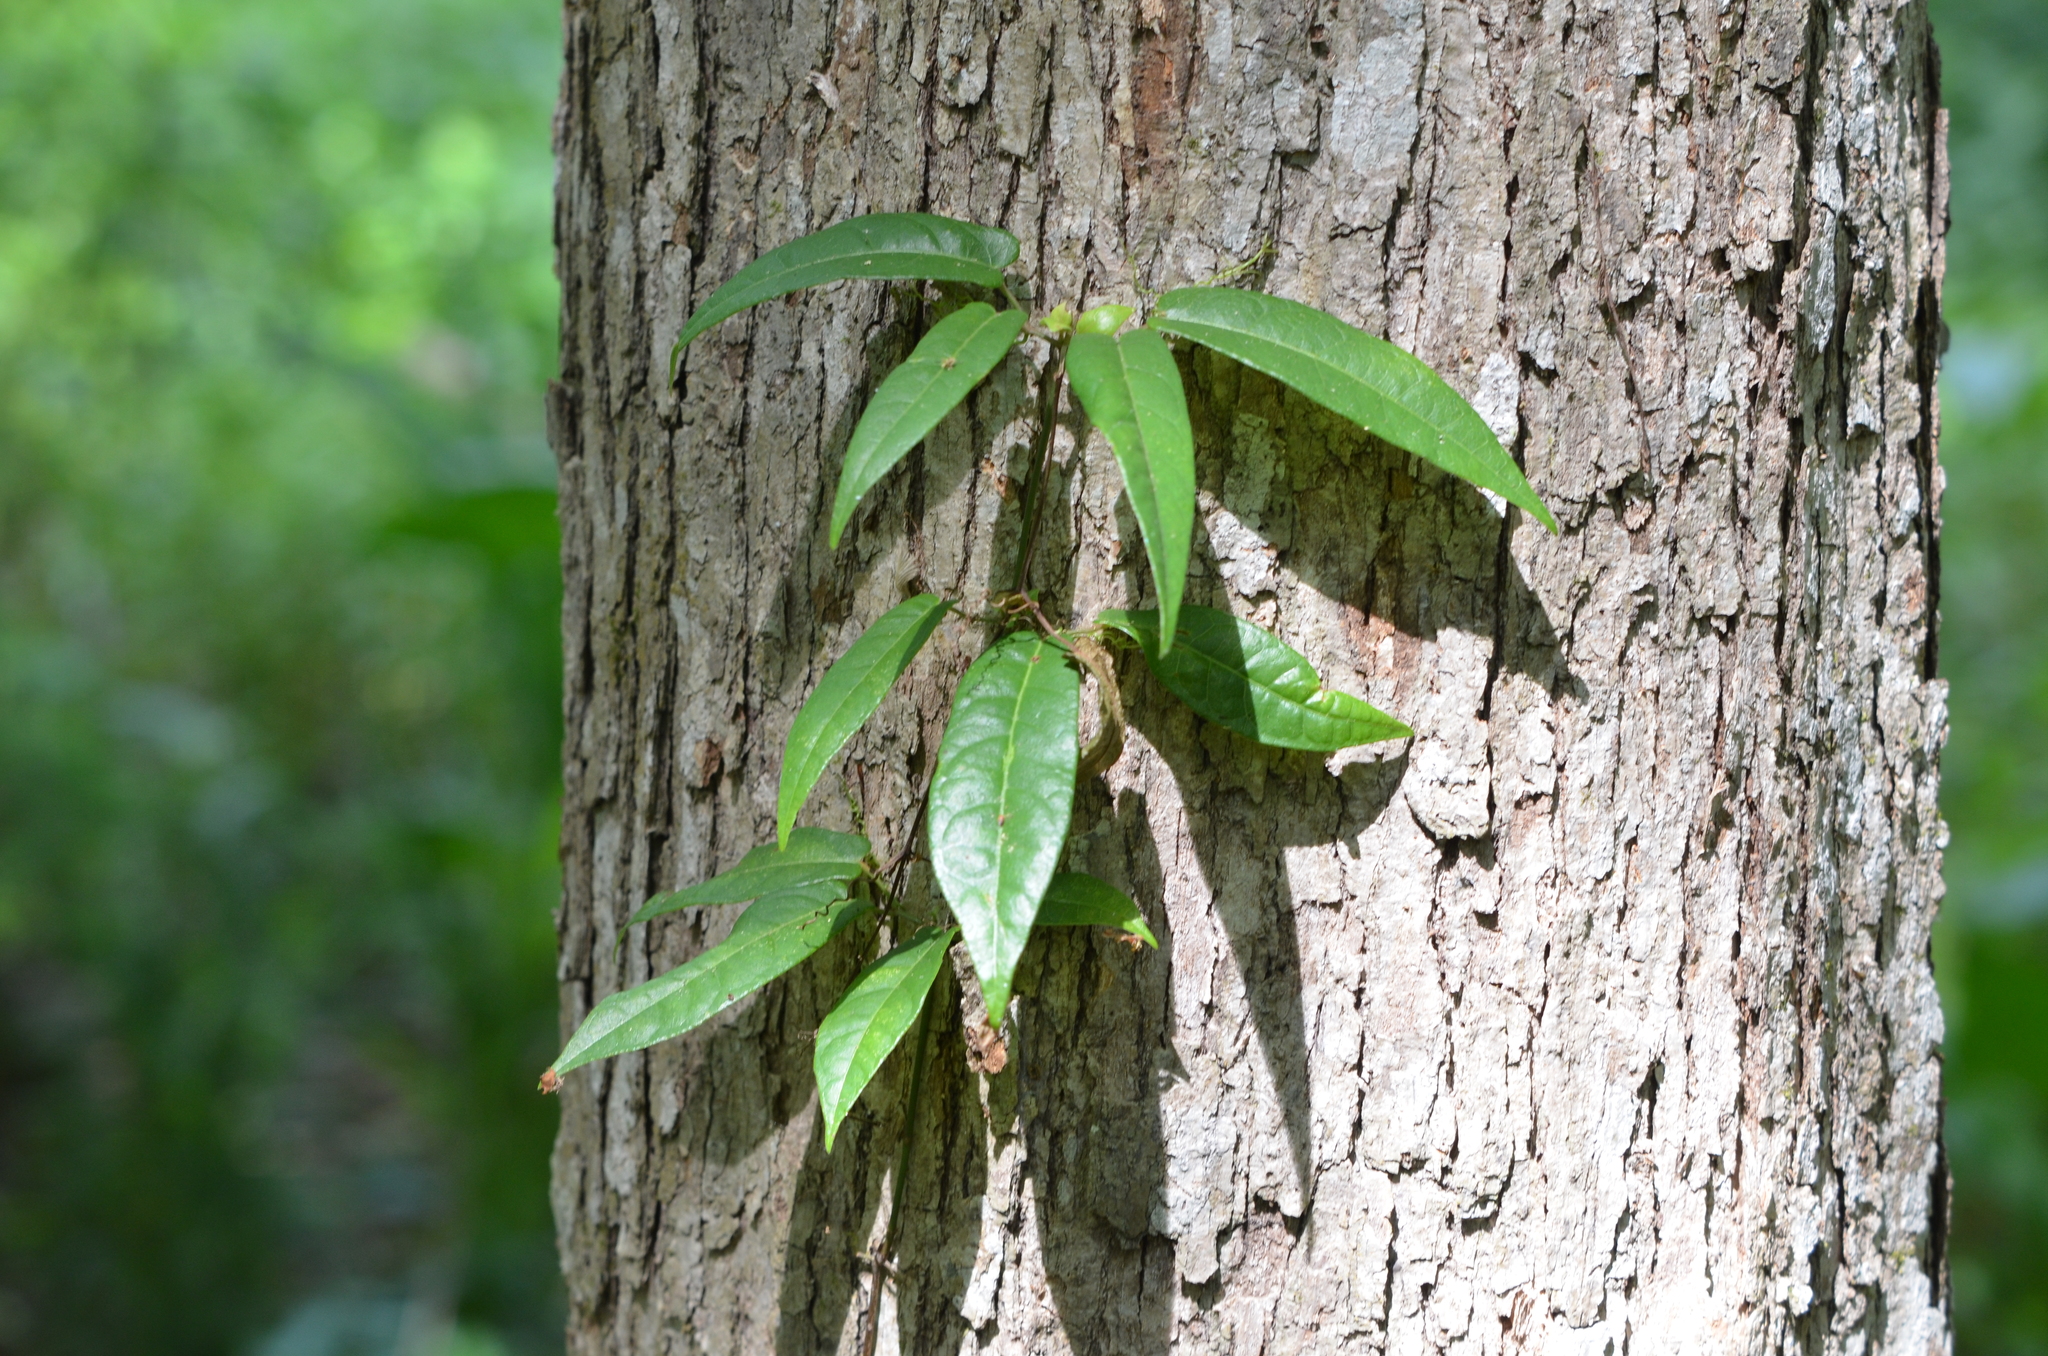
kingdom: Plantae
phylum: Tracheophyta
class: Magnoliopsida
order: Lamiales
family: Bignoniaceae
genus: Bignonia
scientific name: Bignonia capreolata
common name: Crossvine
